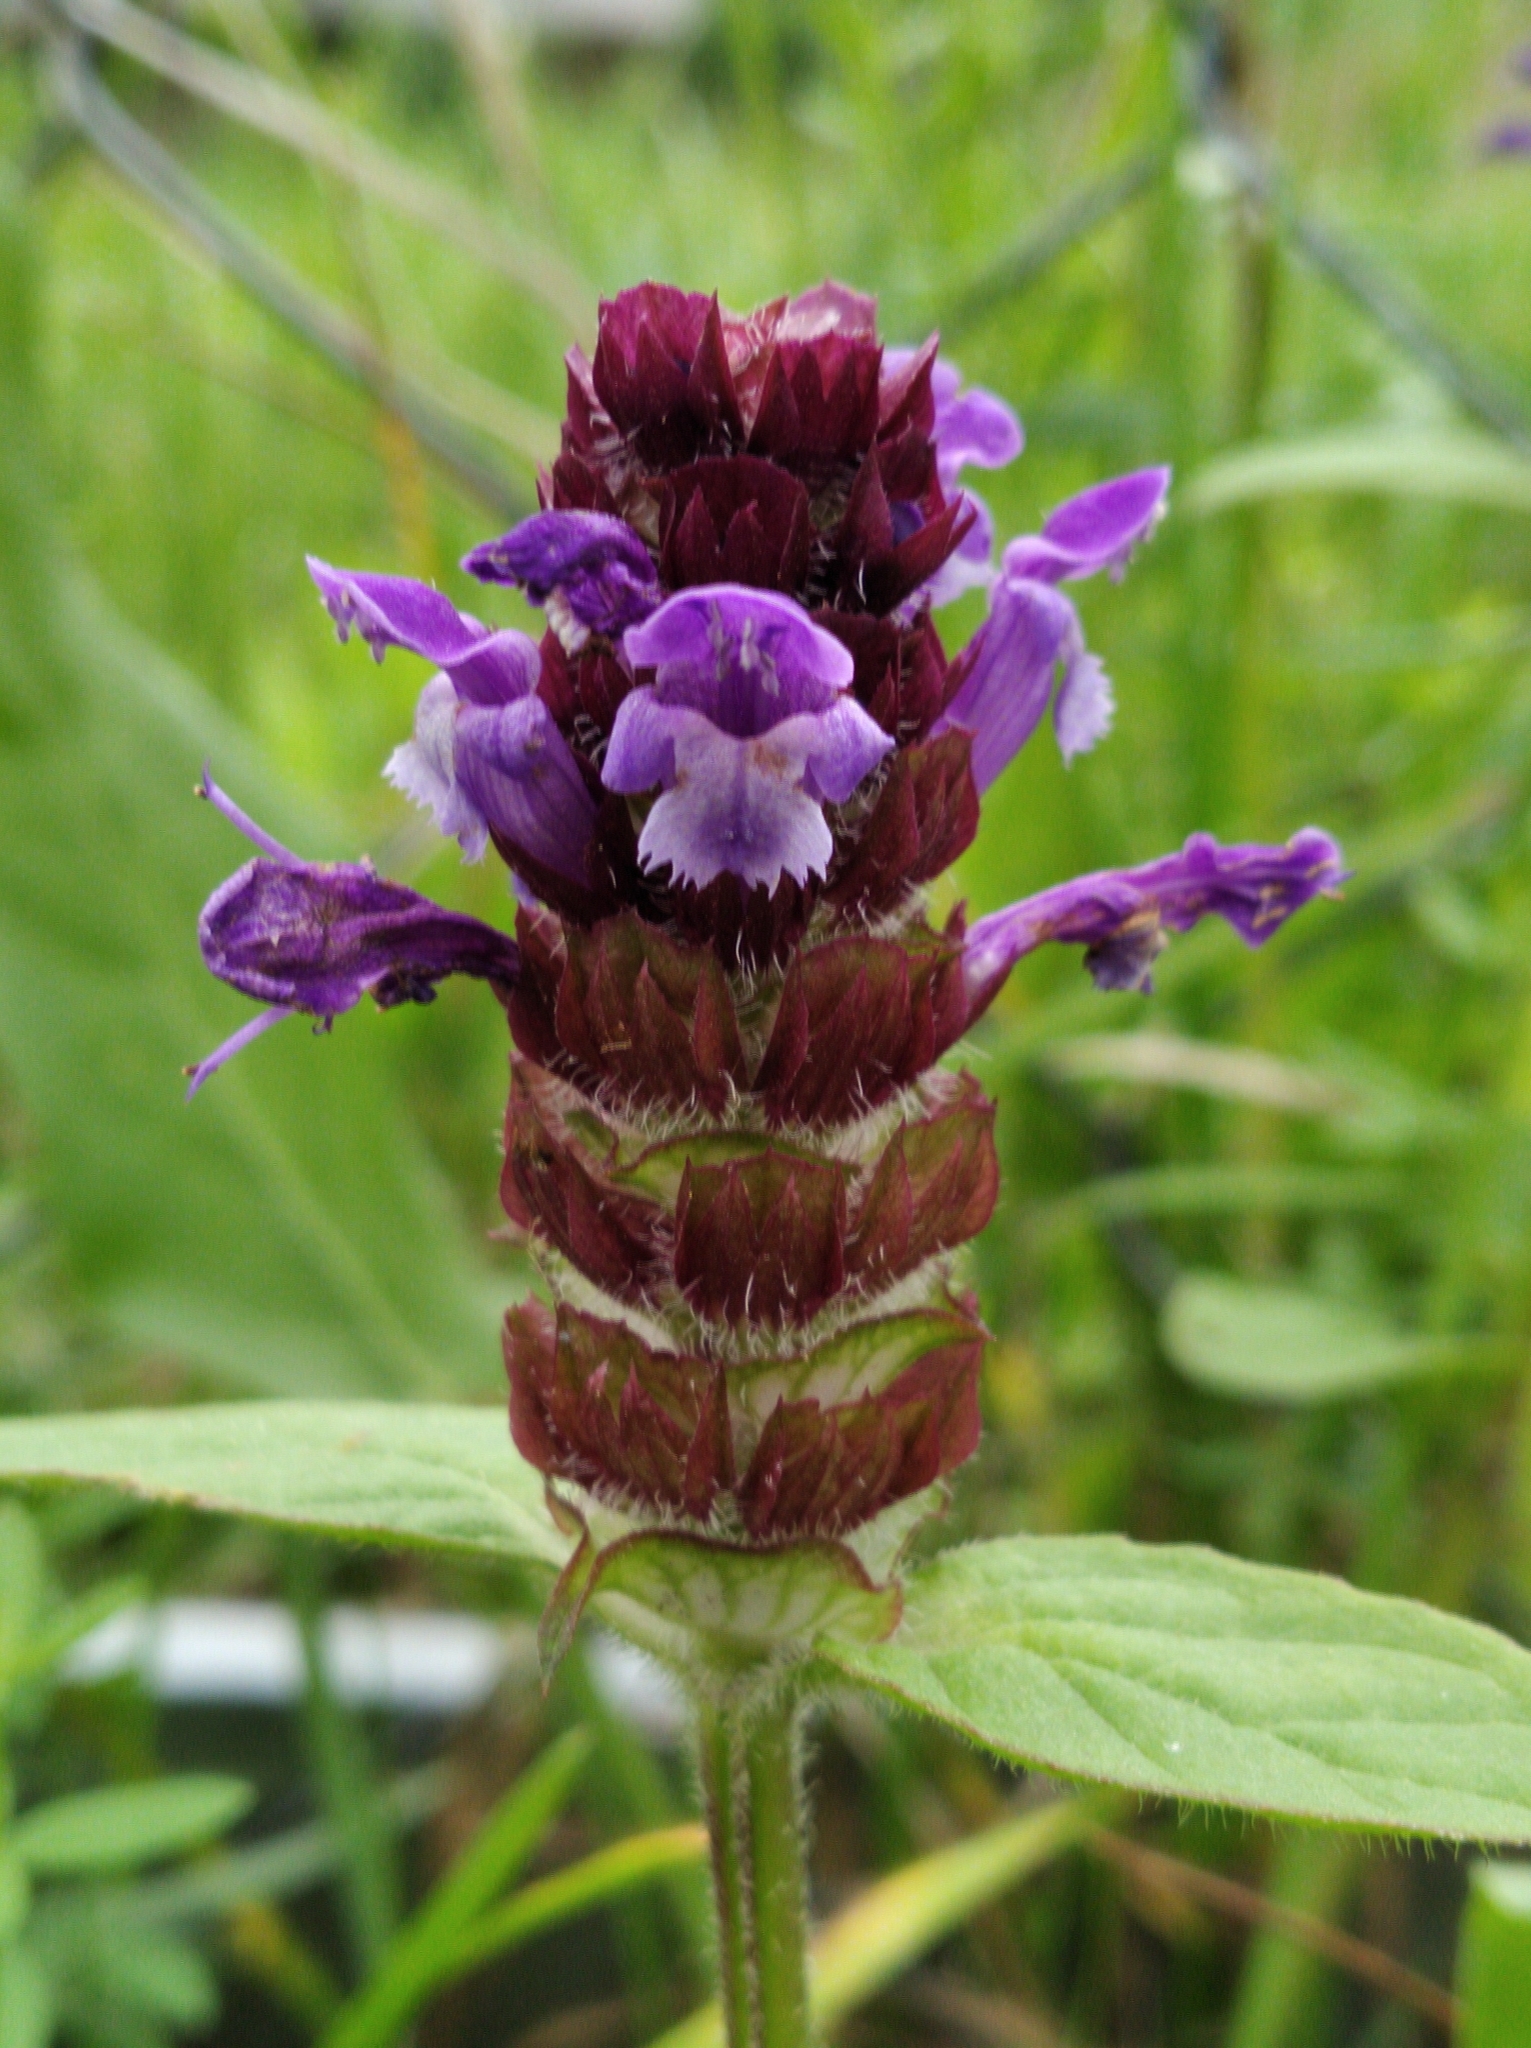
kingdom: Plantae
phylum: Tracheophyta
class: Magnoliopsida
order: Lamiales
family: Lamiaceae
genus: Prunella
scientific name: Prunella vulgaris
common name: Heal-all
